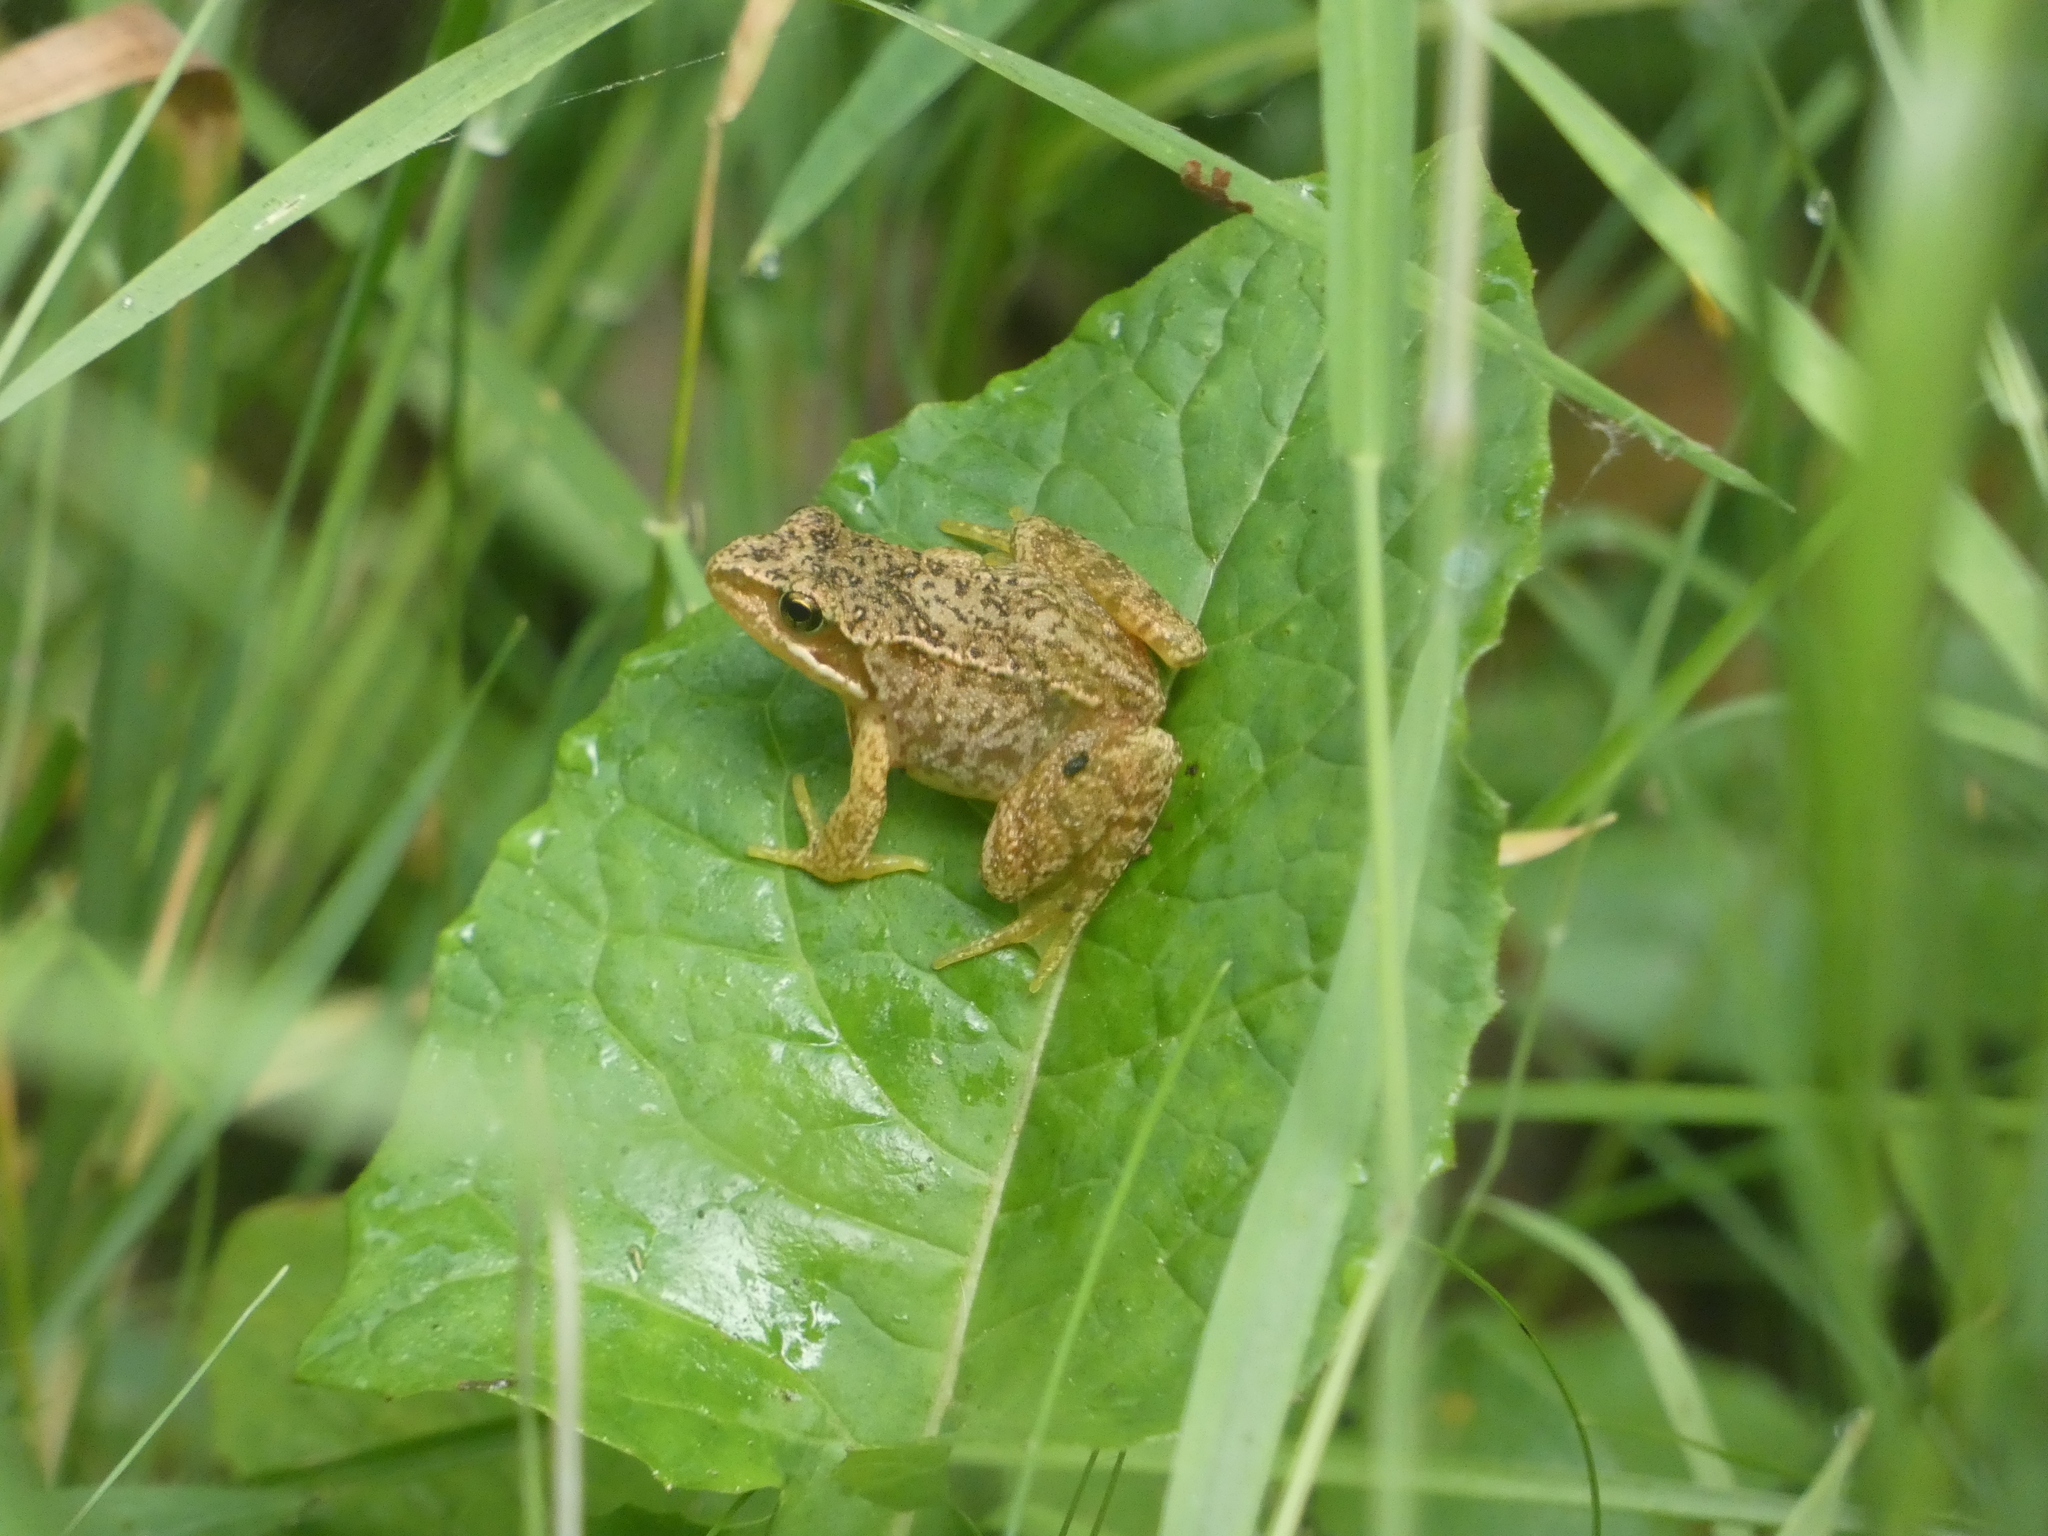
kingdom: Animalia
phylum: Chordata
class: Amphibia
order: Anura
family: Ranidae
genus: Rana
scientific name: Rana temporaria
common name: Common frog
